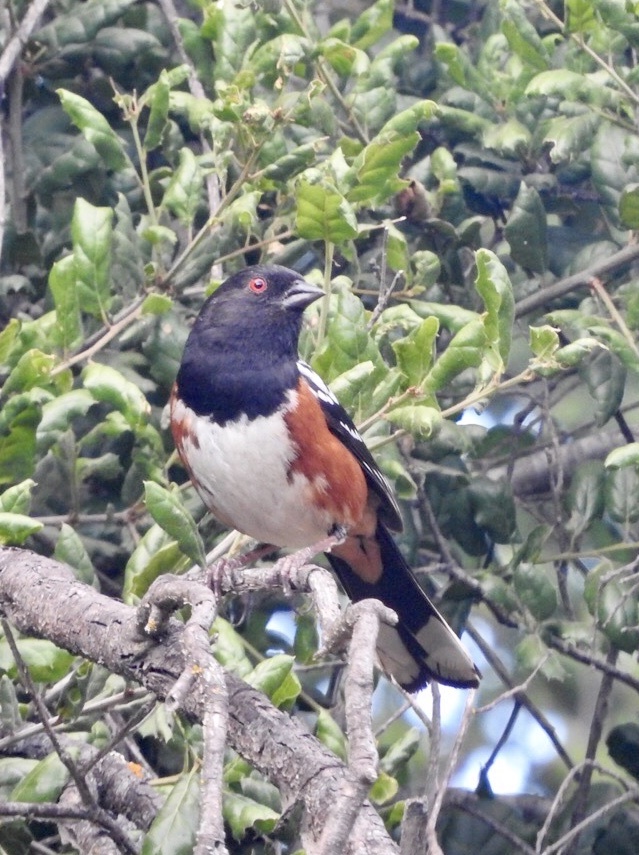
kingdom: Animalia
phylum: Chordata
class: Aves
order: Passeriformes
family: Passerellidae
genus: Pipilo
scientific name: Pipilo maculatus
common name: Spotted towhee
